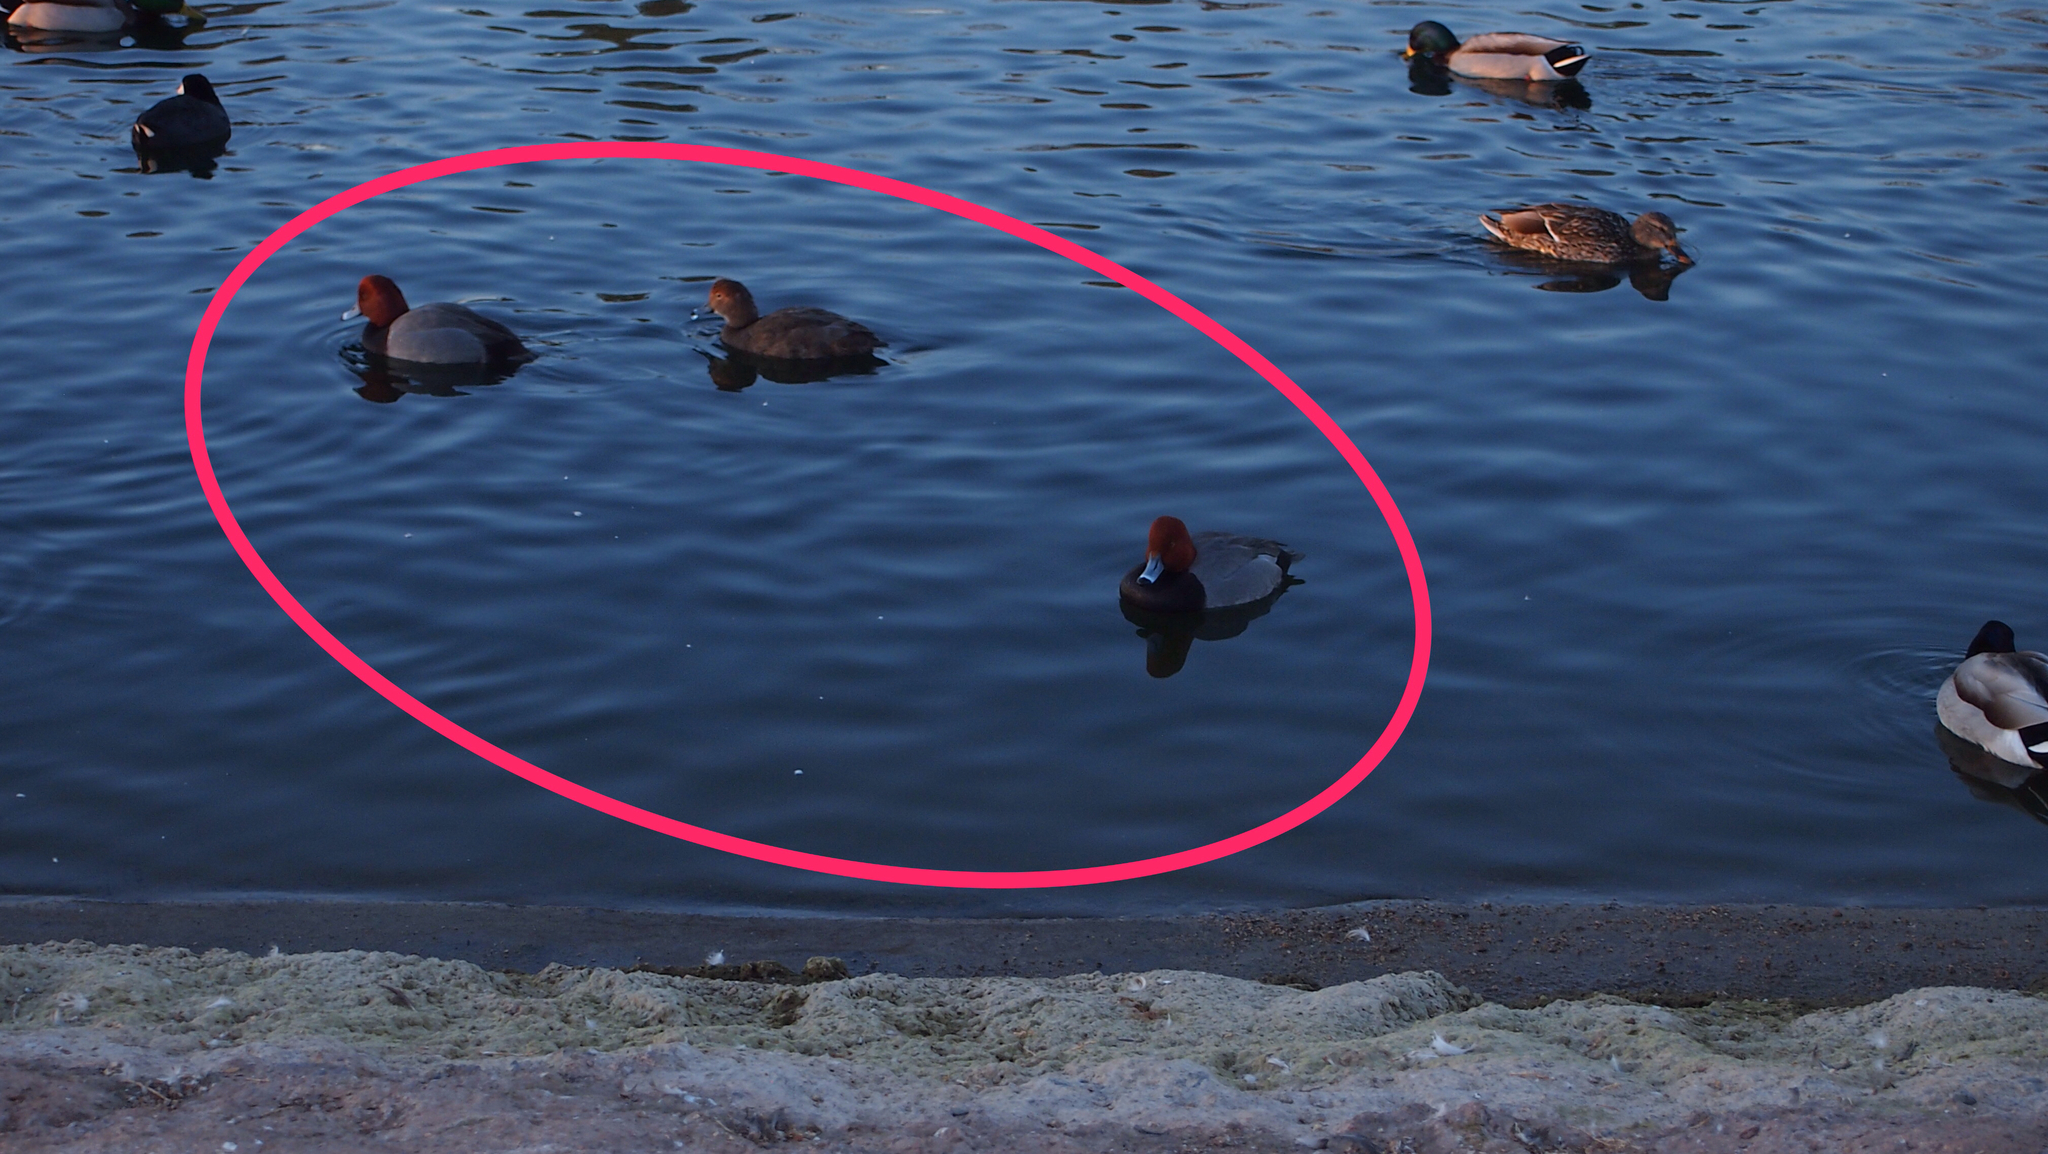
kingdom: Animalia
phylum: Chordata
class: Aves
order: Anseriformes
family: Anatidae
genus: Aythya
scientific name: Aythya americana
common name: Redhead
